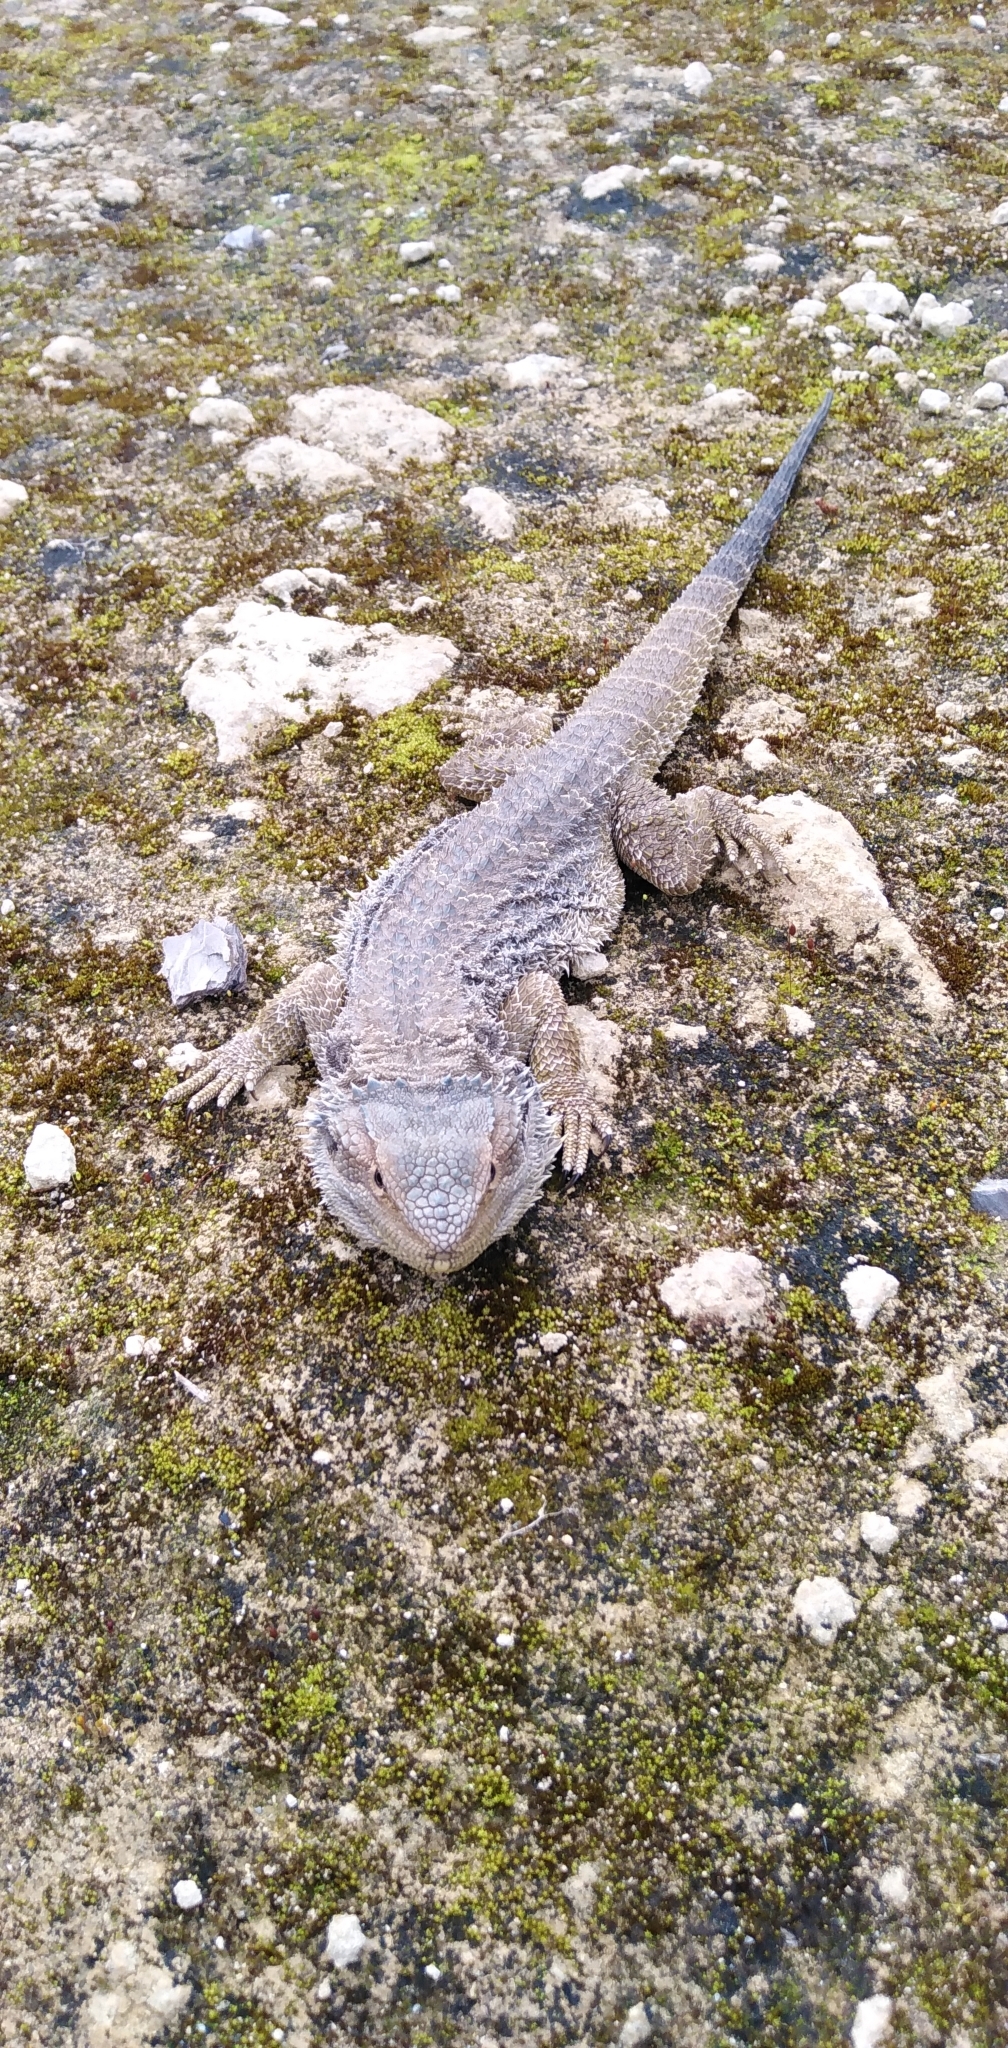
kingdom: Animalia
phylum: Chordata
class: Squamata
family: Agamidae
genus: Pogona
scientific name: Pogona barbata
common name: Bearded dragon
